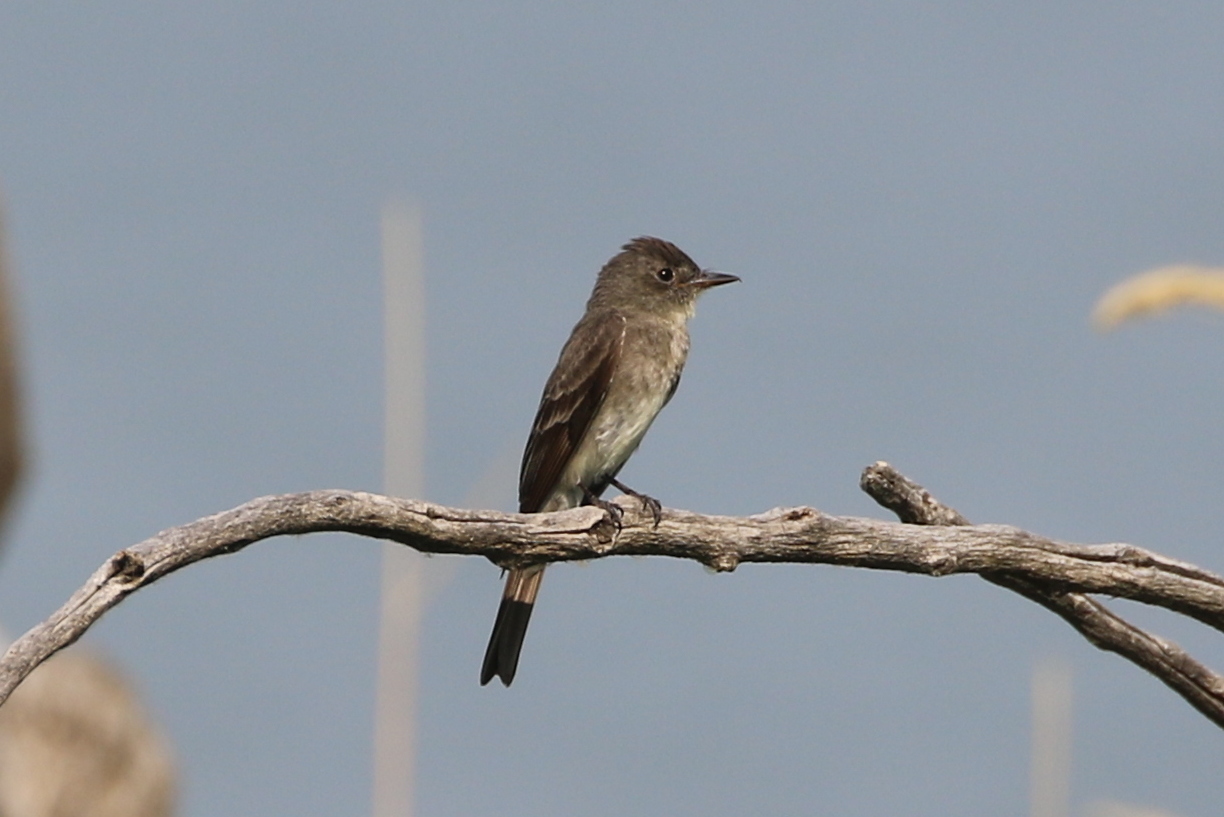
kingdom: Animalia
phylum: Chordata
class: Aves
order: Passeriformes
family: Tyrannidae
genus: Contopus
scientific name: Contopus sordidulus
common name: Western wood-pewee
